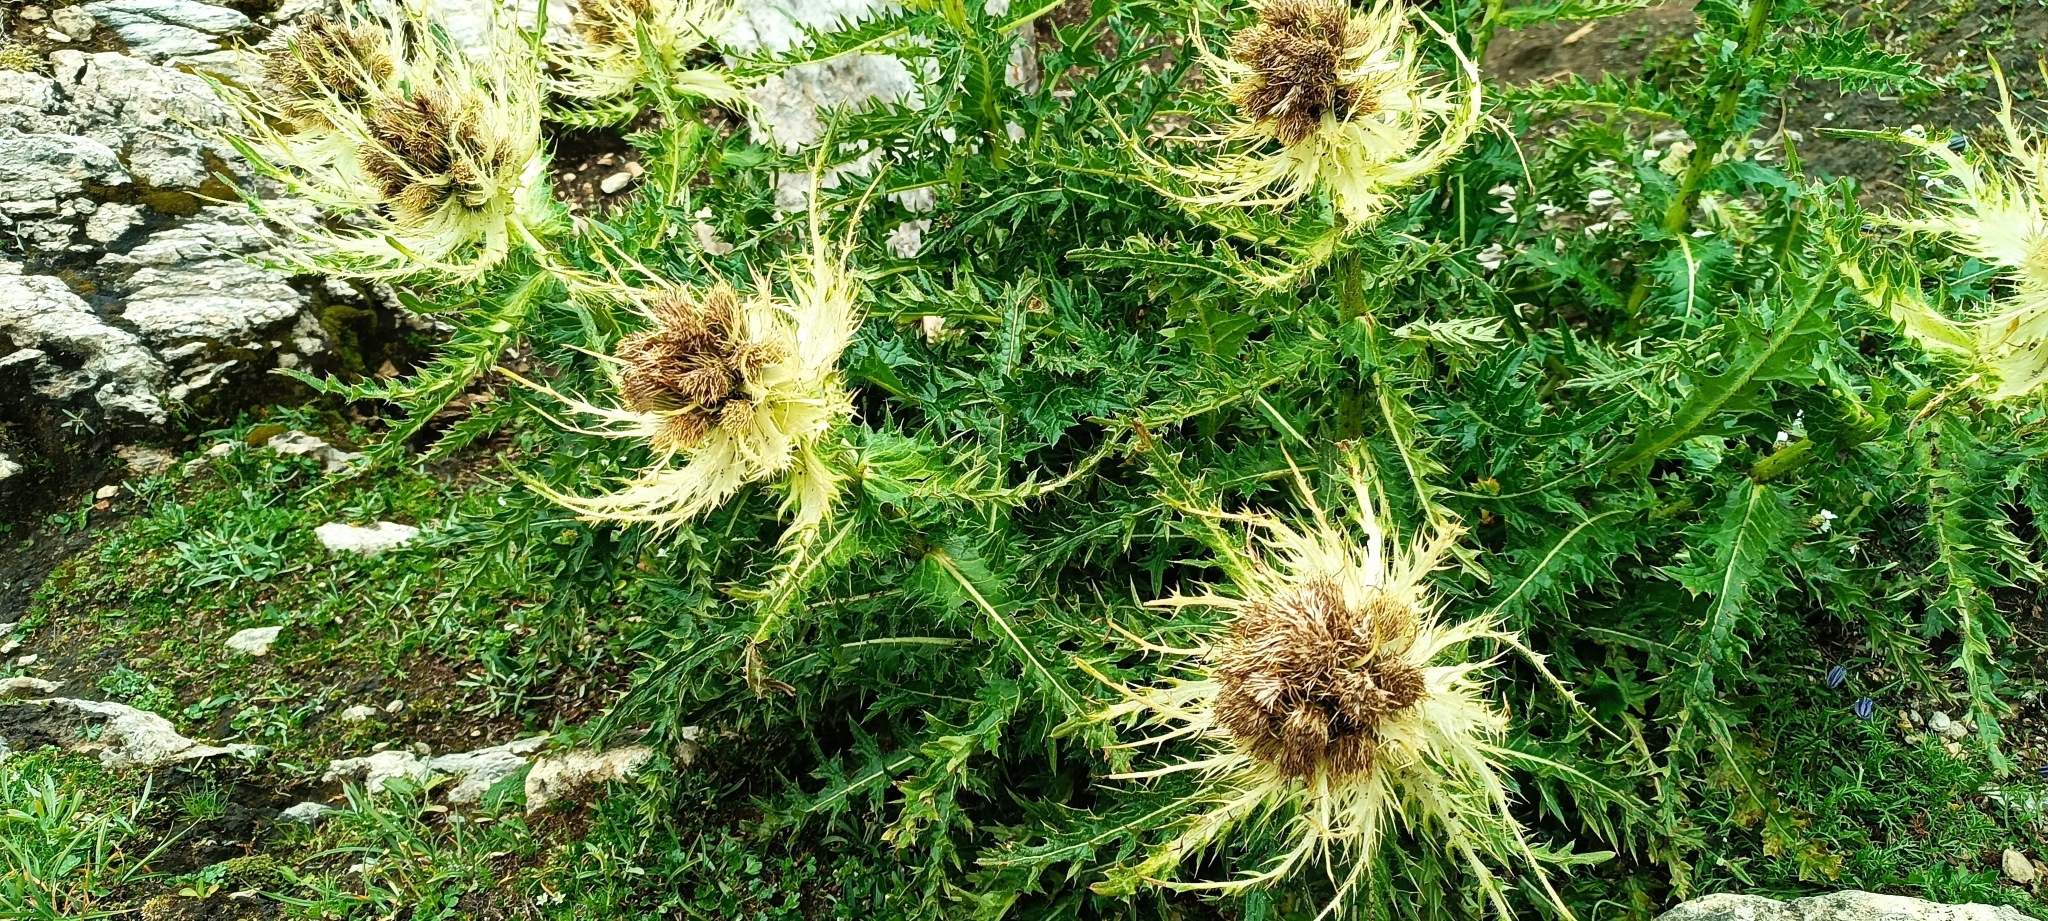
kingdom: Plantae
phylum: Tracheophyta
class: Magnoliopsida
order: Asterales
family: Asteraceae
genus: Cirsium
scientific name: Cirsium spinosissimum
